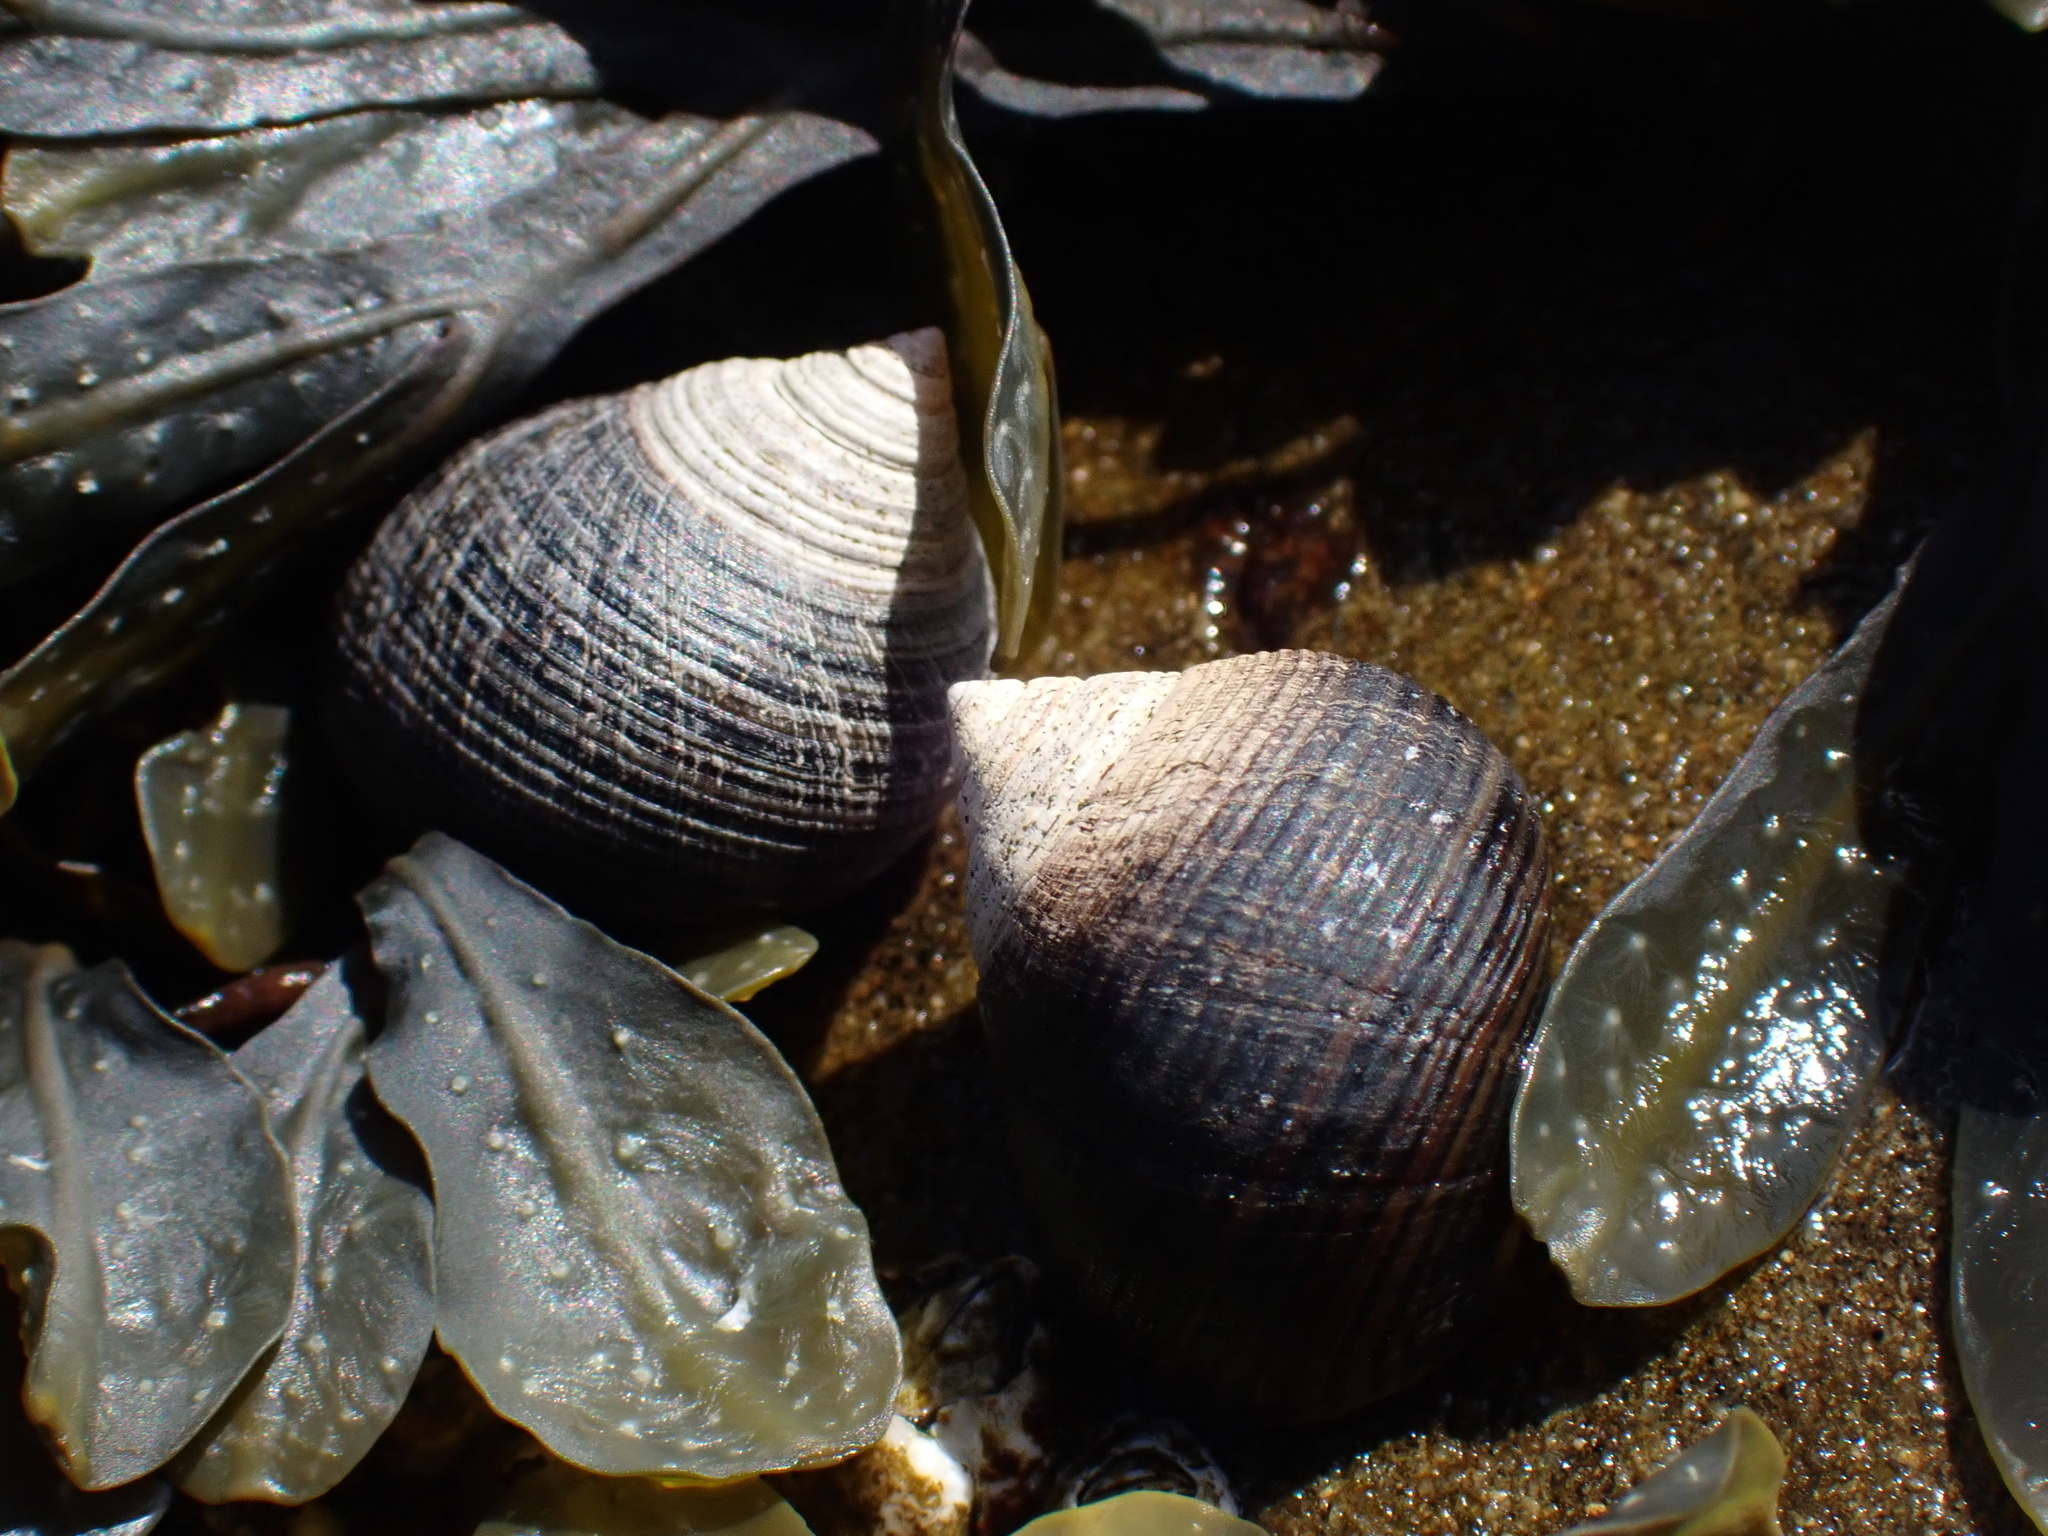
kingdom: Animalia
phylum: Mollusca
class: Gastropoda
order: Littorinimorpha
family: Littorinidae
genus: Littorina
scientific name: Littorina littorea
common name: Common periwinkle
